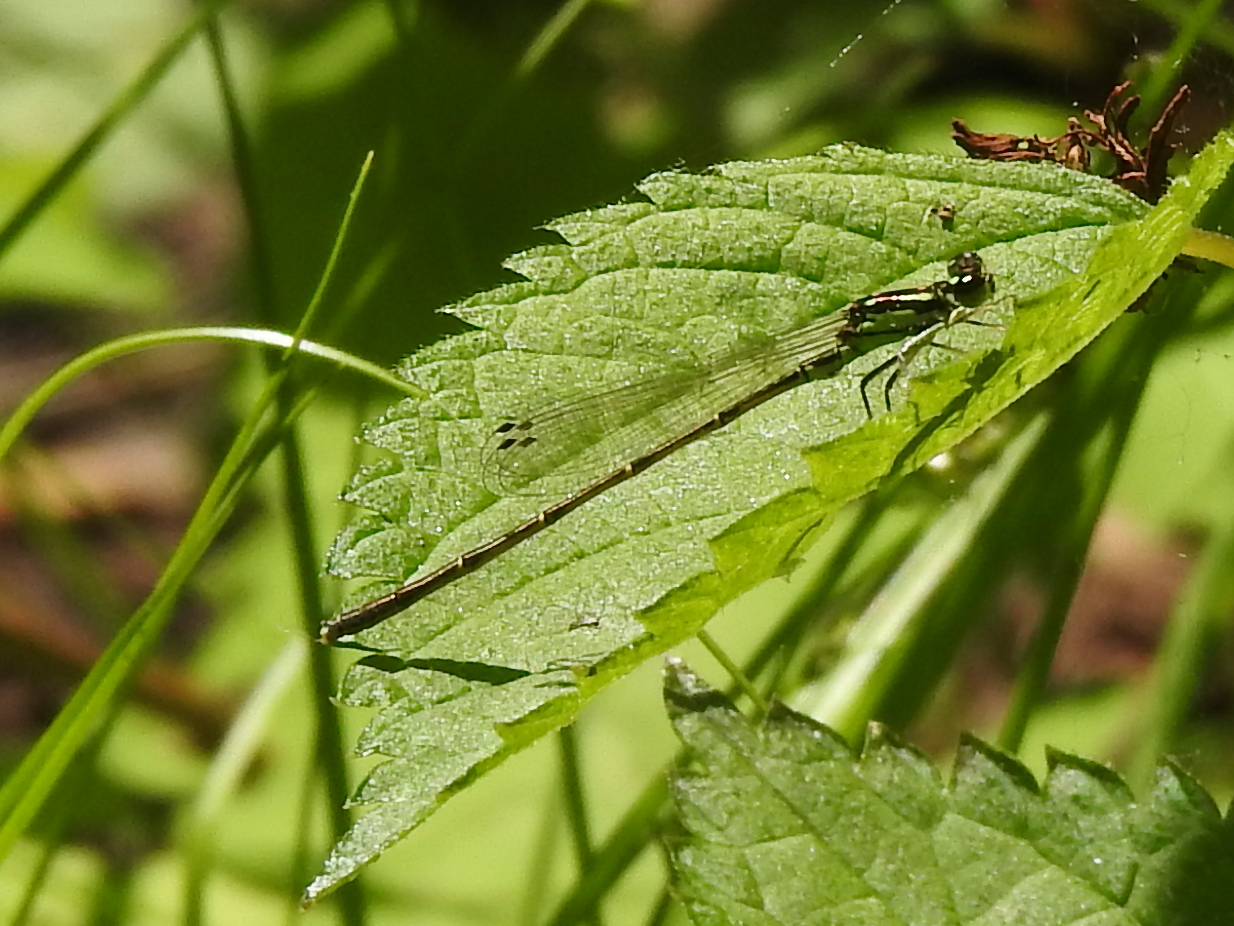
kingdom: Animalia
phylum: Arthropoda
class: Insecta
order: Odonata
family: Coenagrionidae
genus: Ischnura
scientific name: Ischnura posita
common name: Fragile forktail
